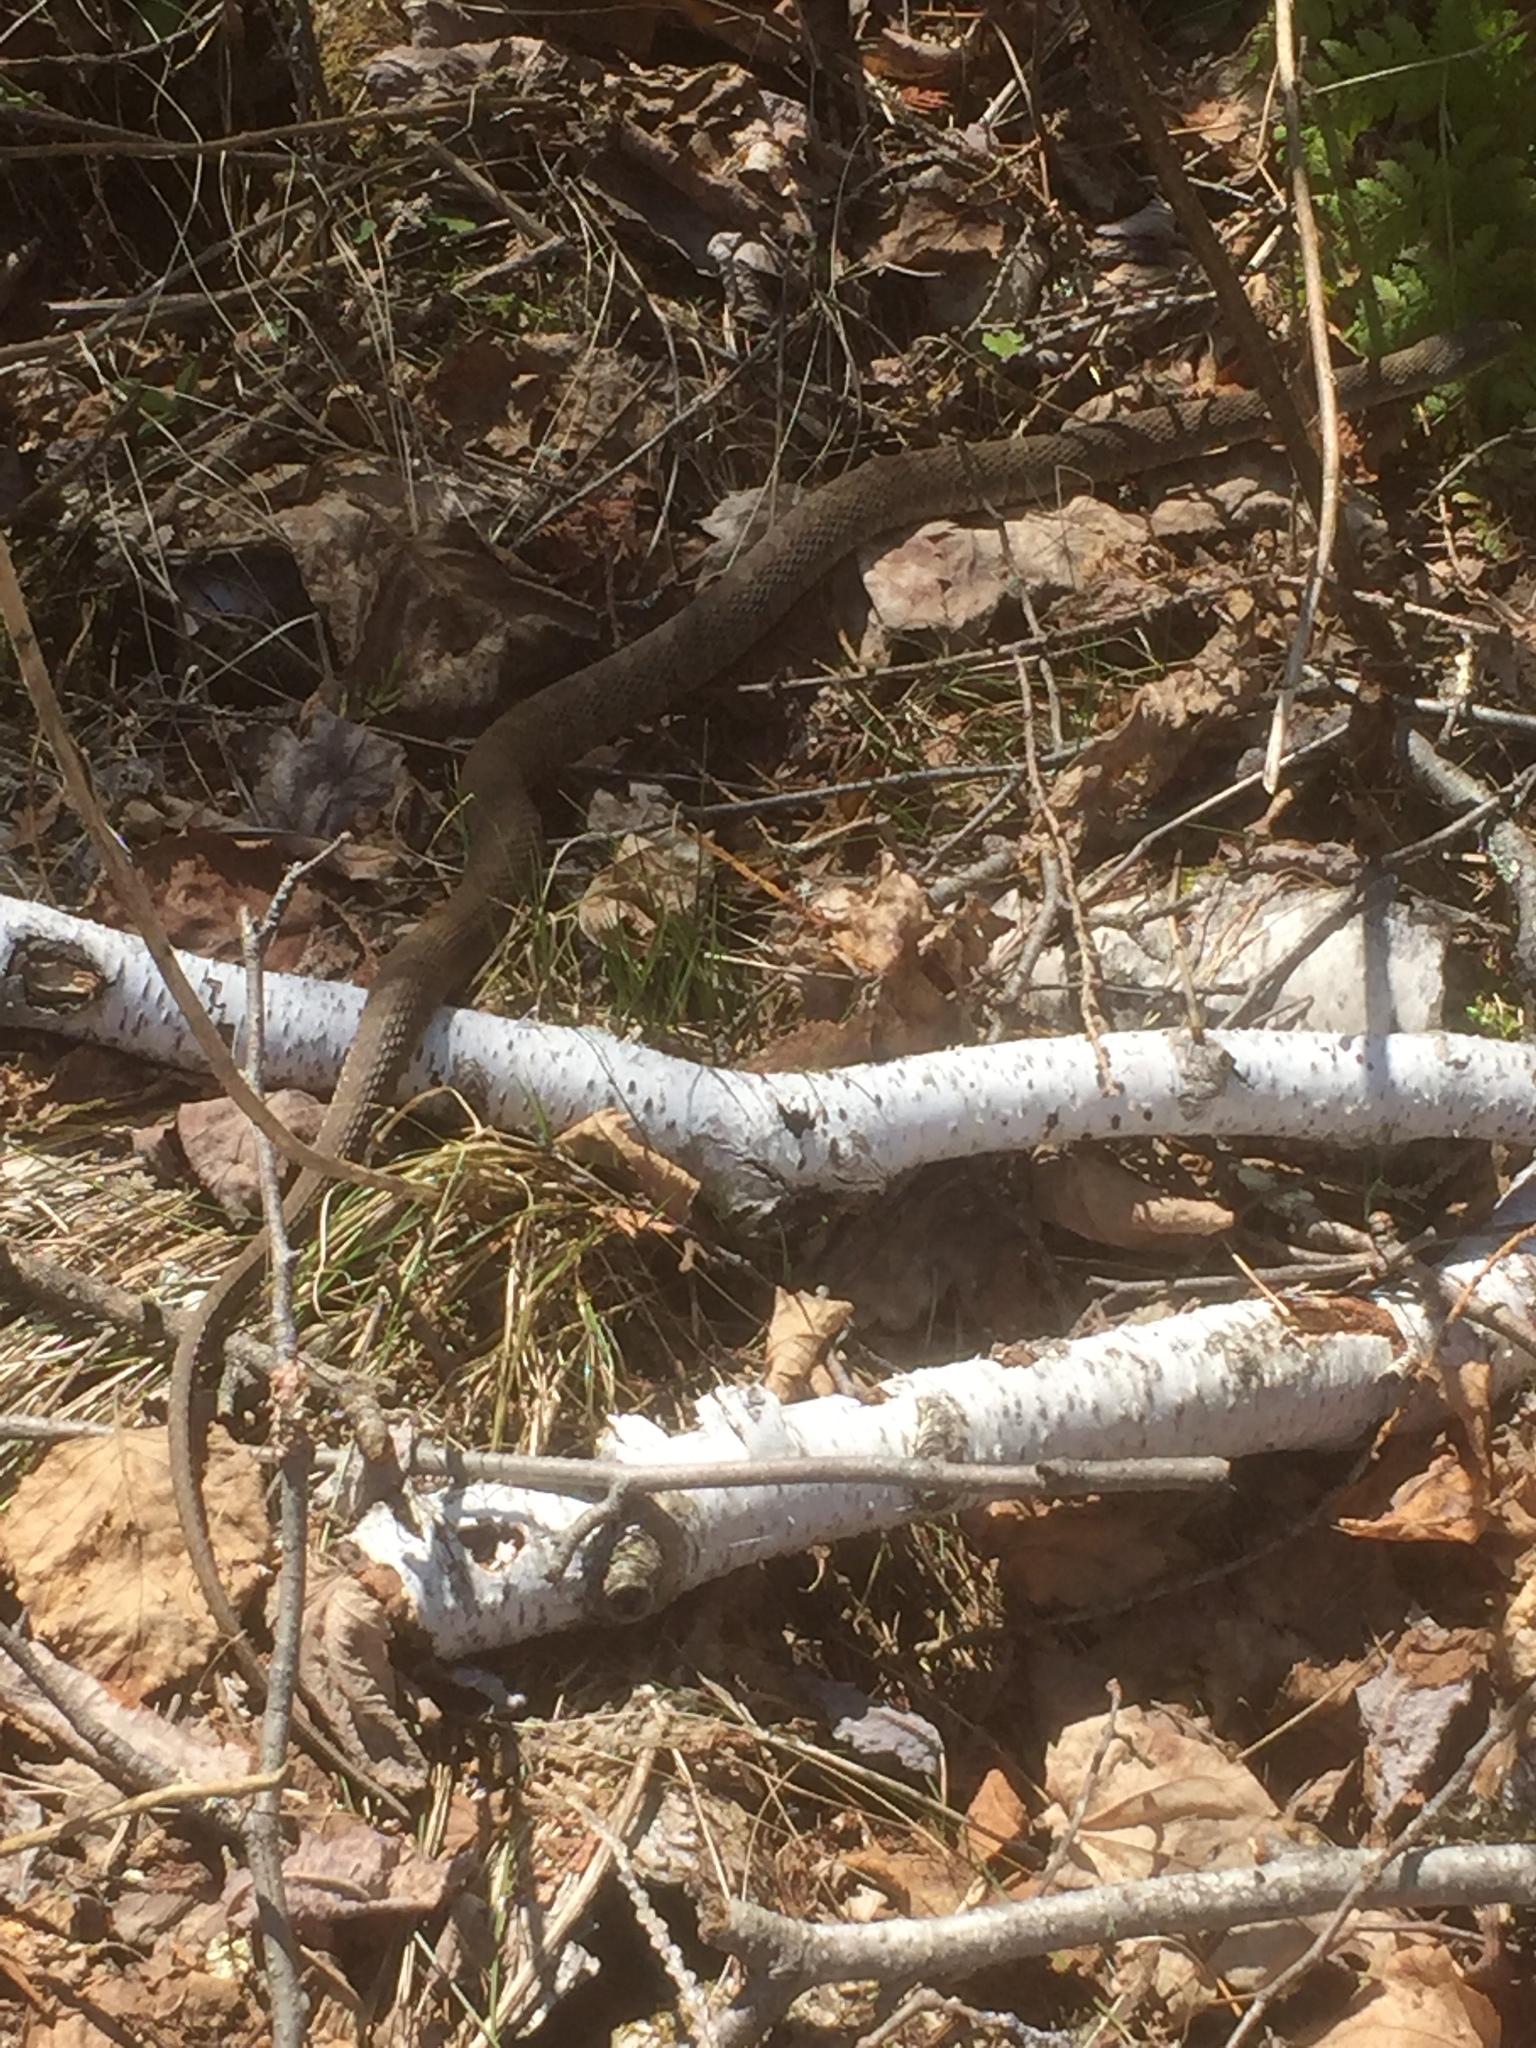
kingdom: Animalia
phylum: Chordata
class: Squamata
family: Colubridae
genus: Nerodia
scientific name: Nerodia sipedon
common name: Northern water snake
